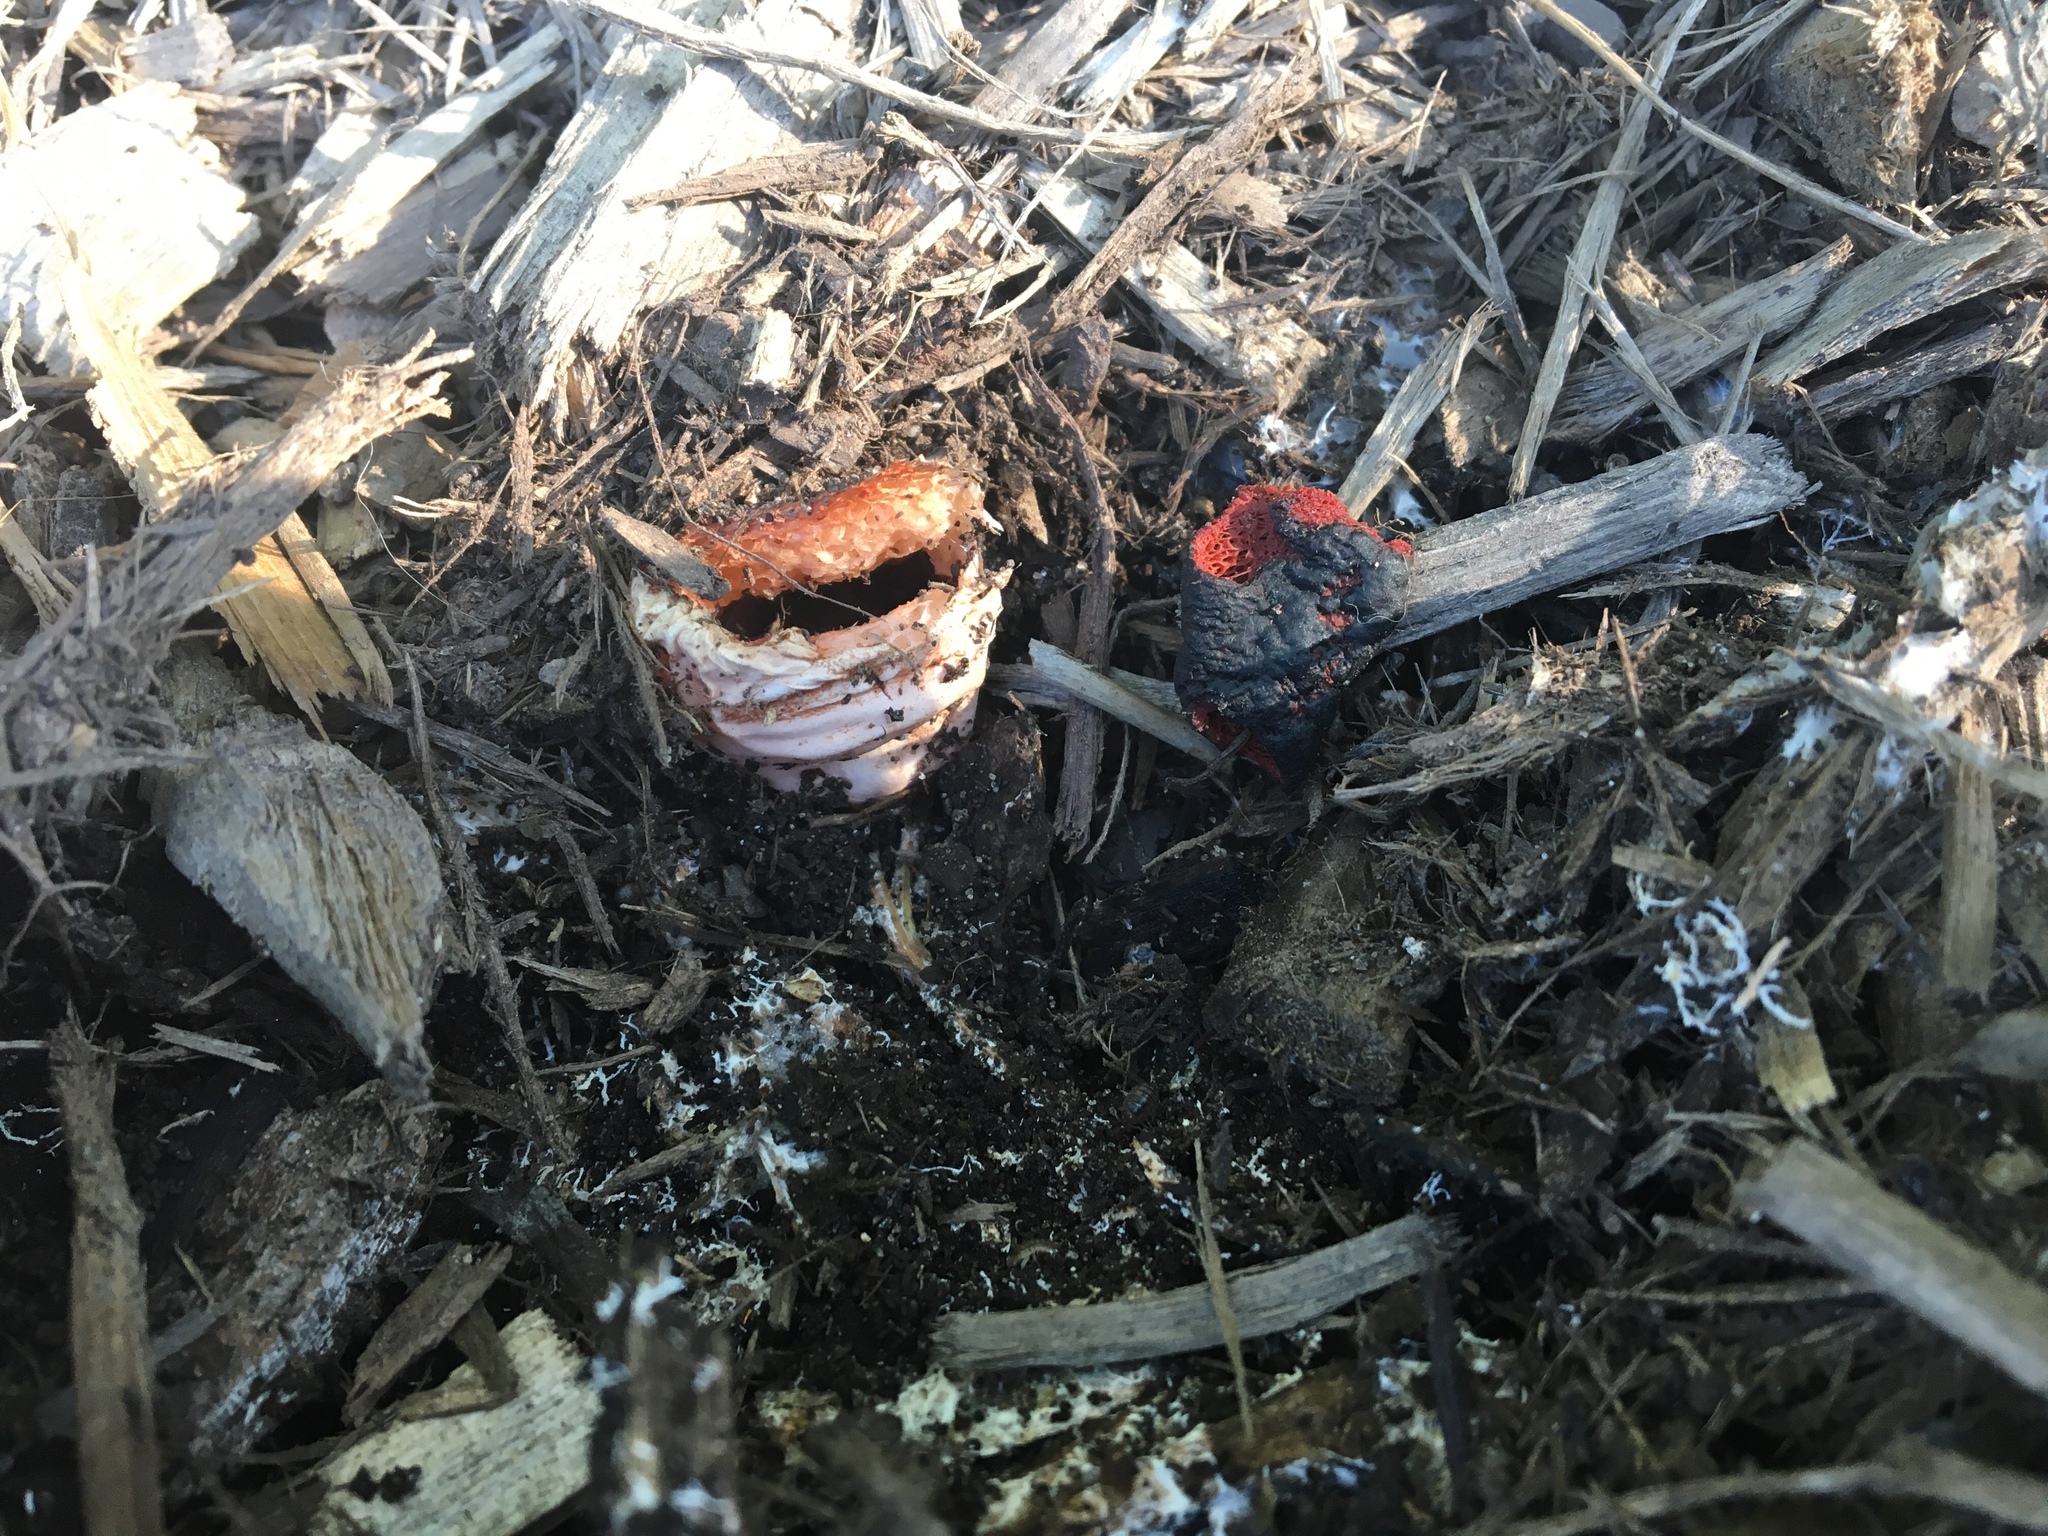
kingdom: Fungi
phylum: Basidiomycota
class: Agaricomycetes
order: Phallales
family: Phallaceae
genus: Mutinus
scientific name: Mutinus elegans
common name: Devil's dipstick
